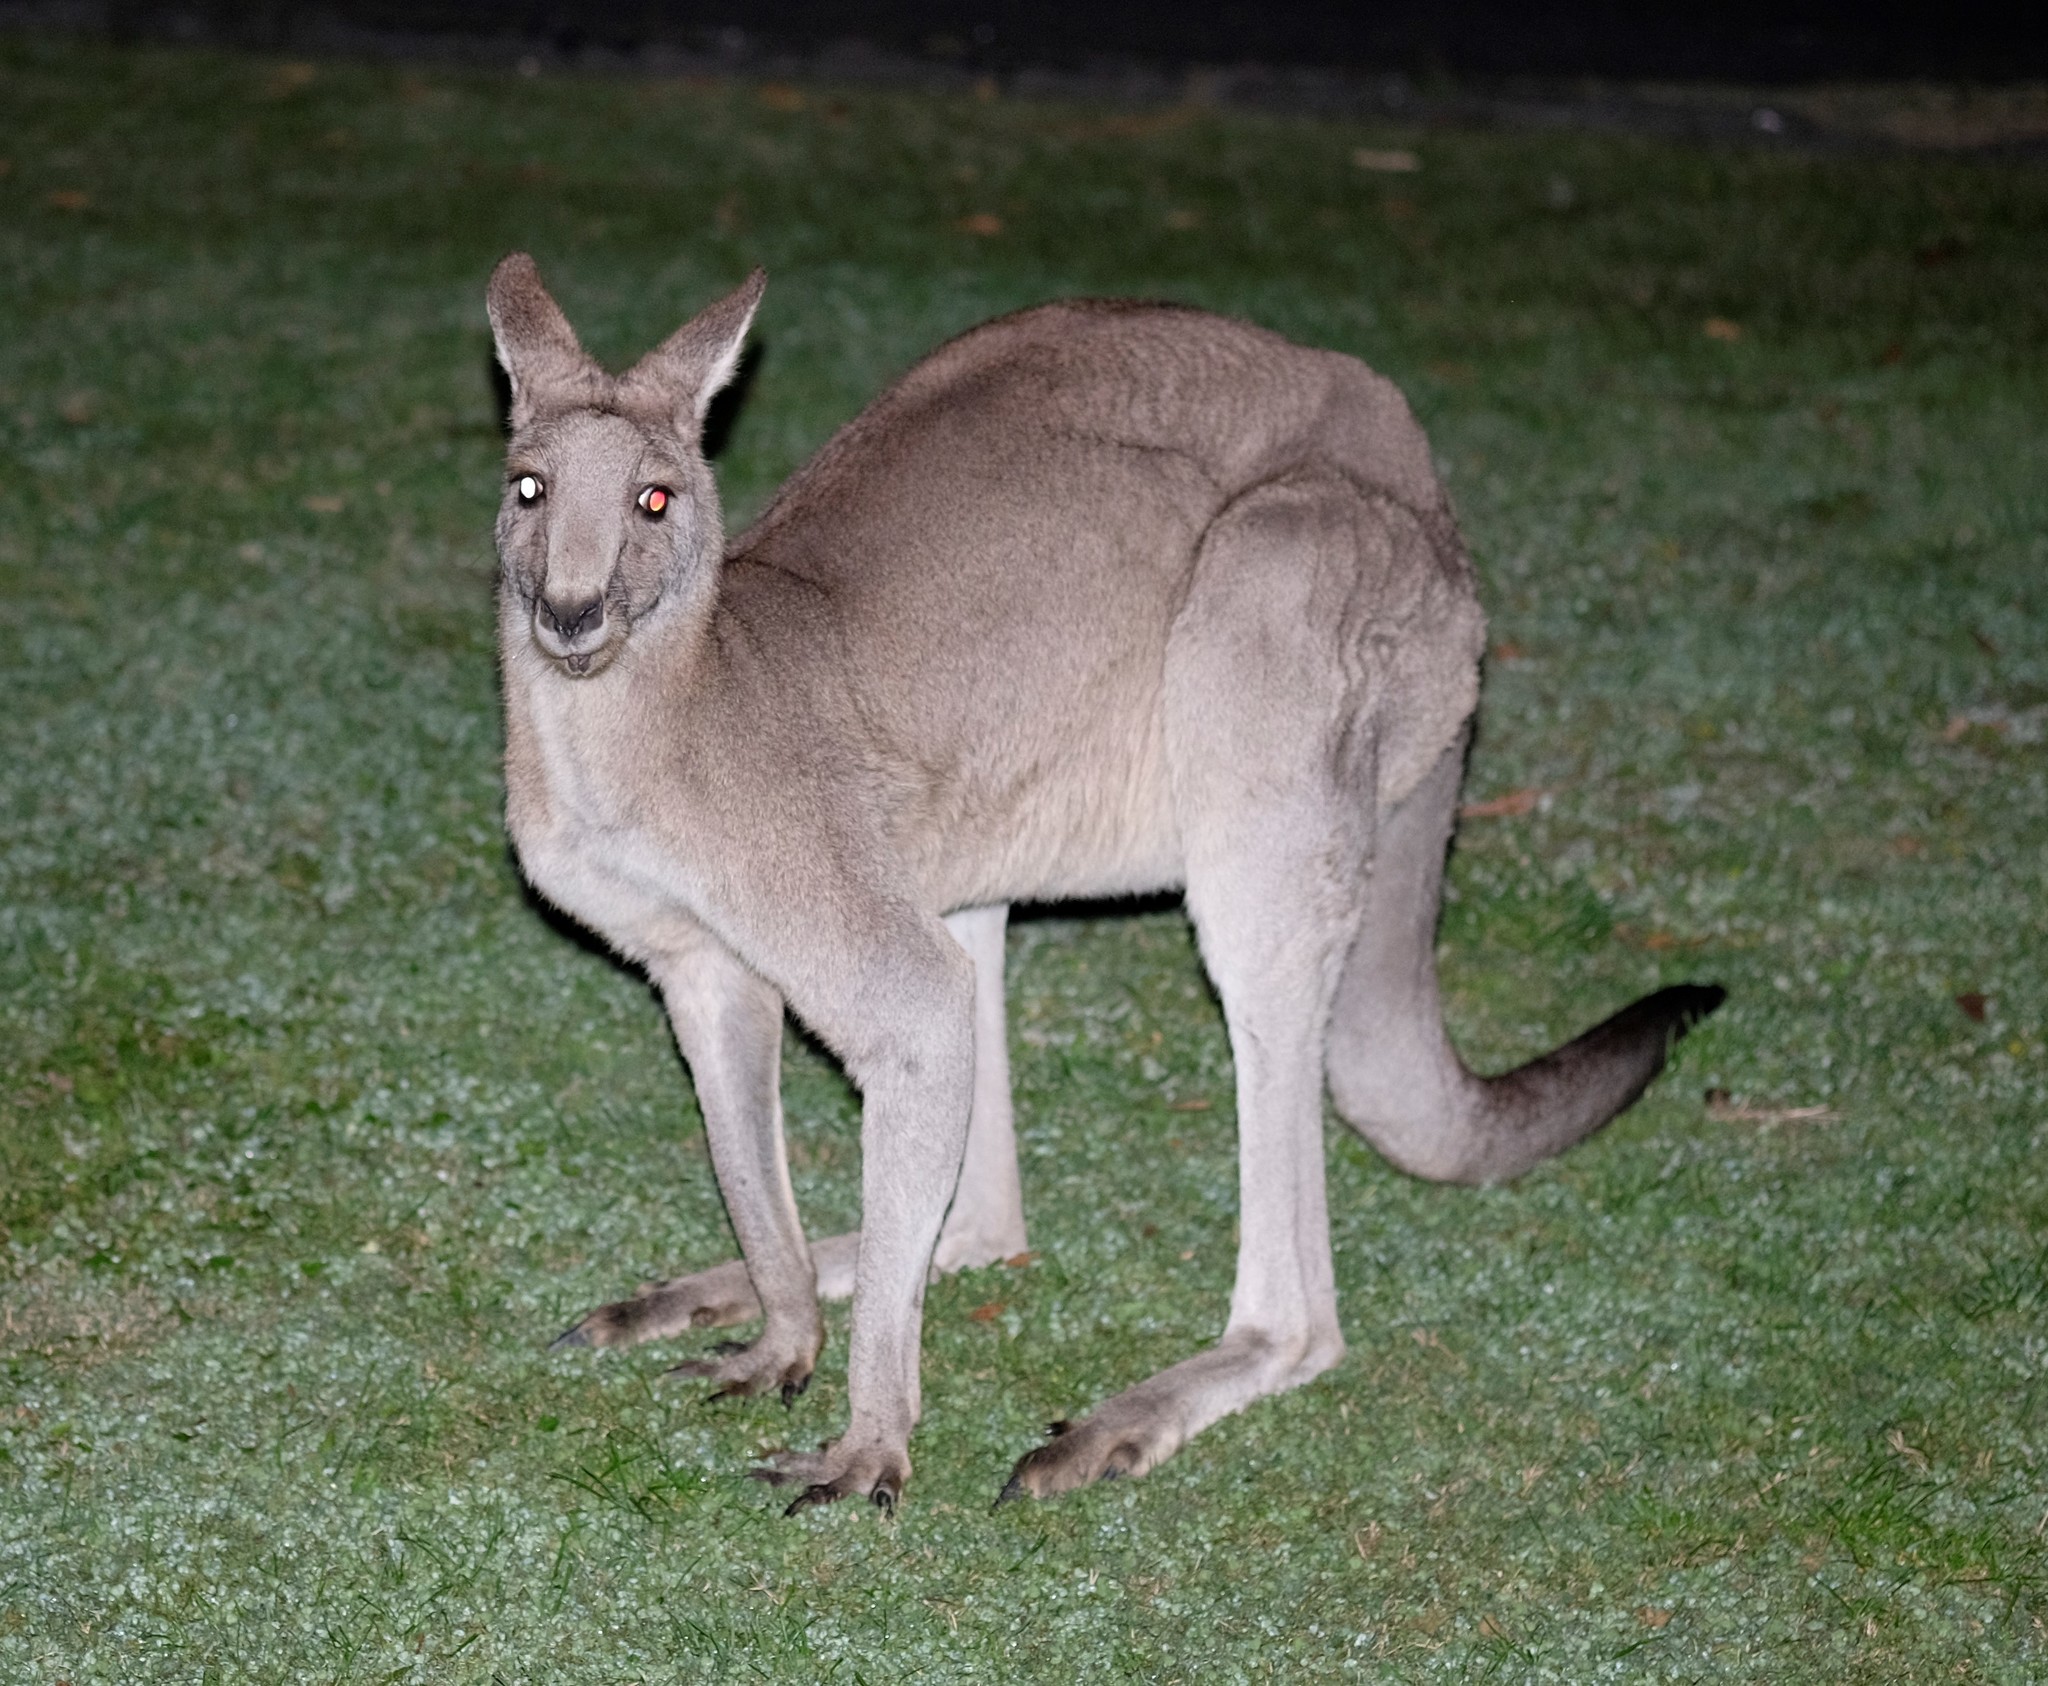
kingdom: Animalia
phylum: Chordata
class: Mammalia
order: Diprotodontia
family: Macropodidae
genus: Macropus
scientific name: Macropus giganteus
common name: Eastern grey kangaroo
